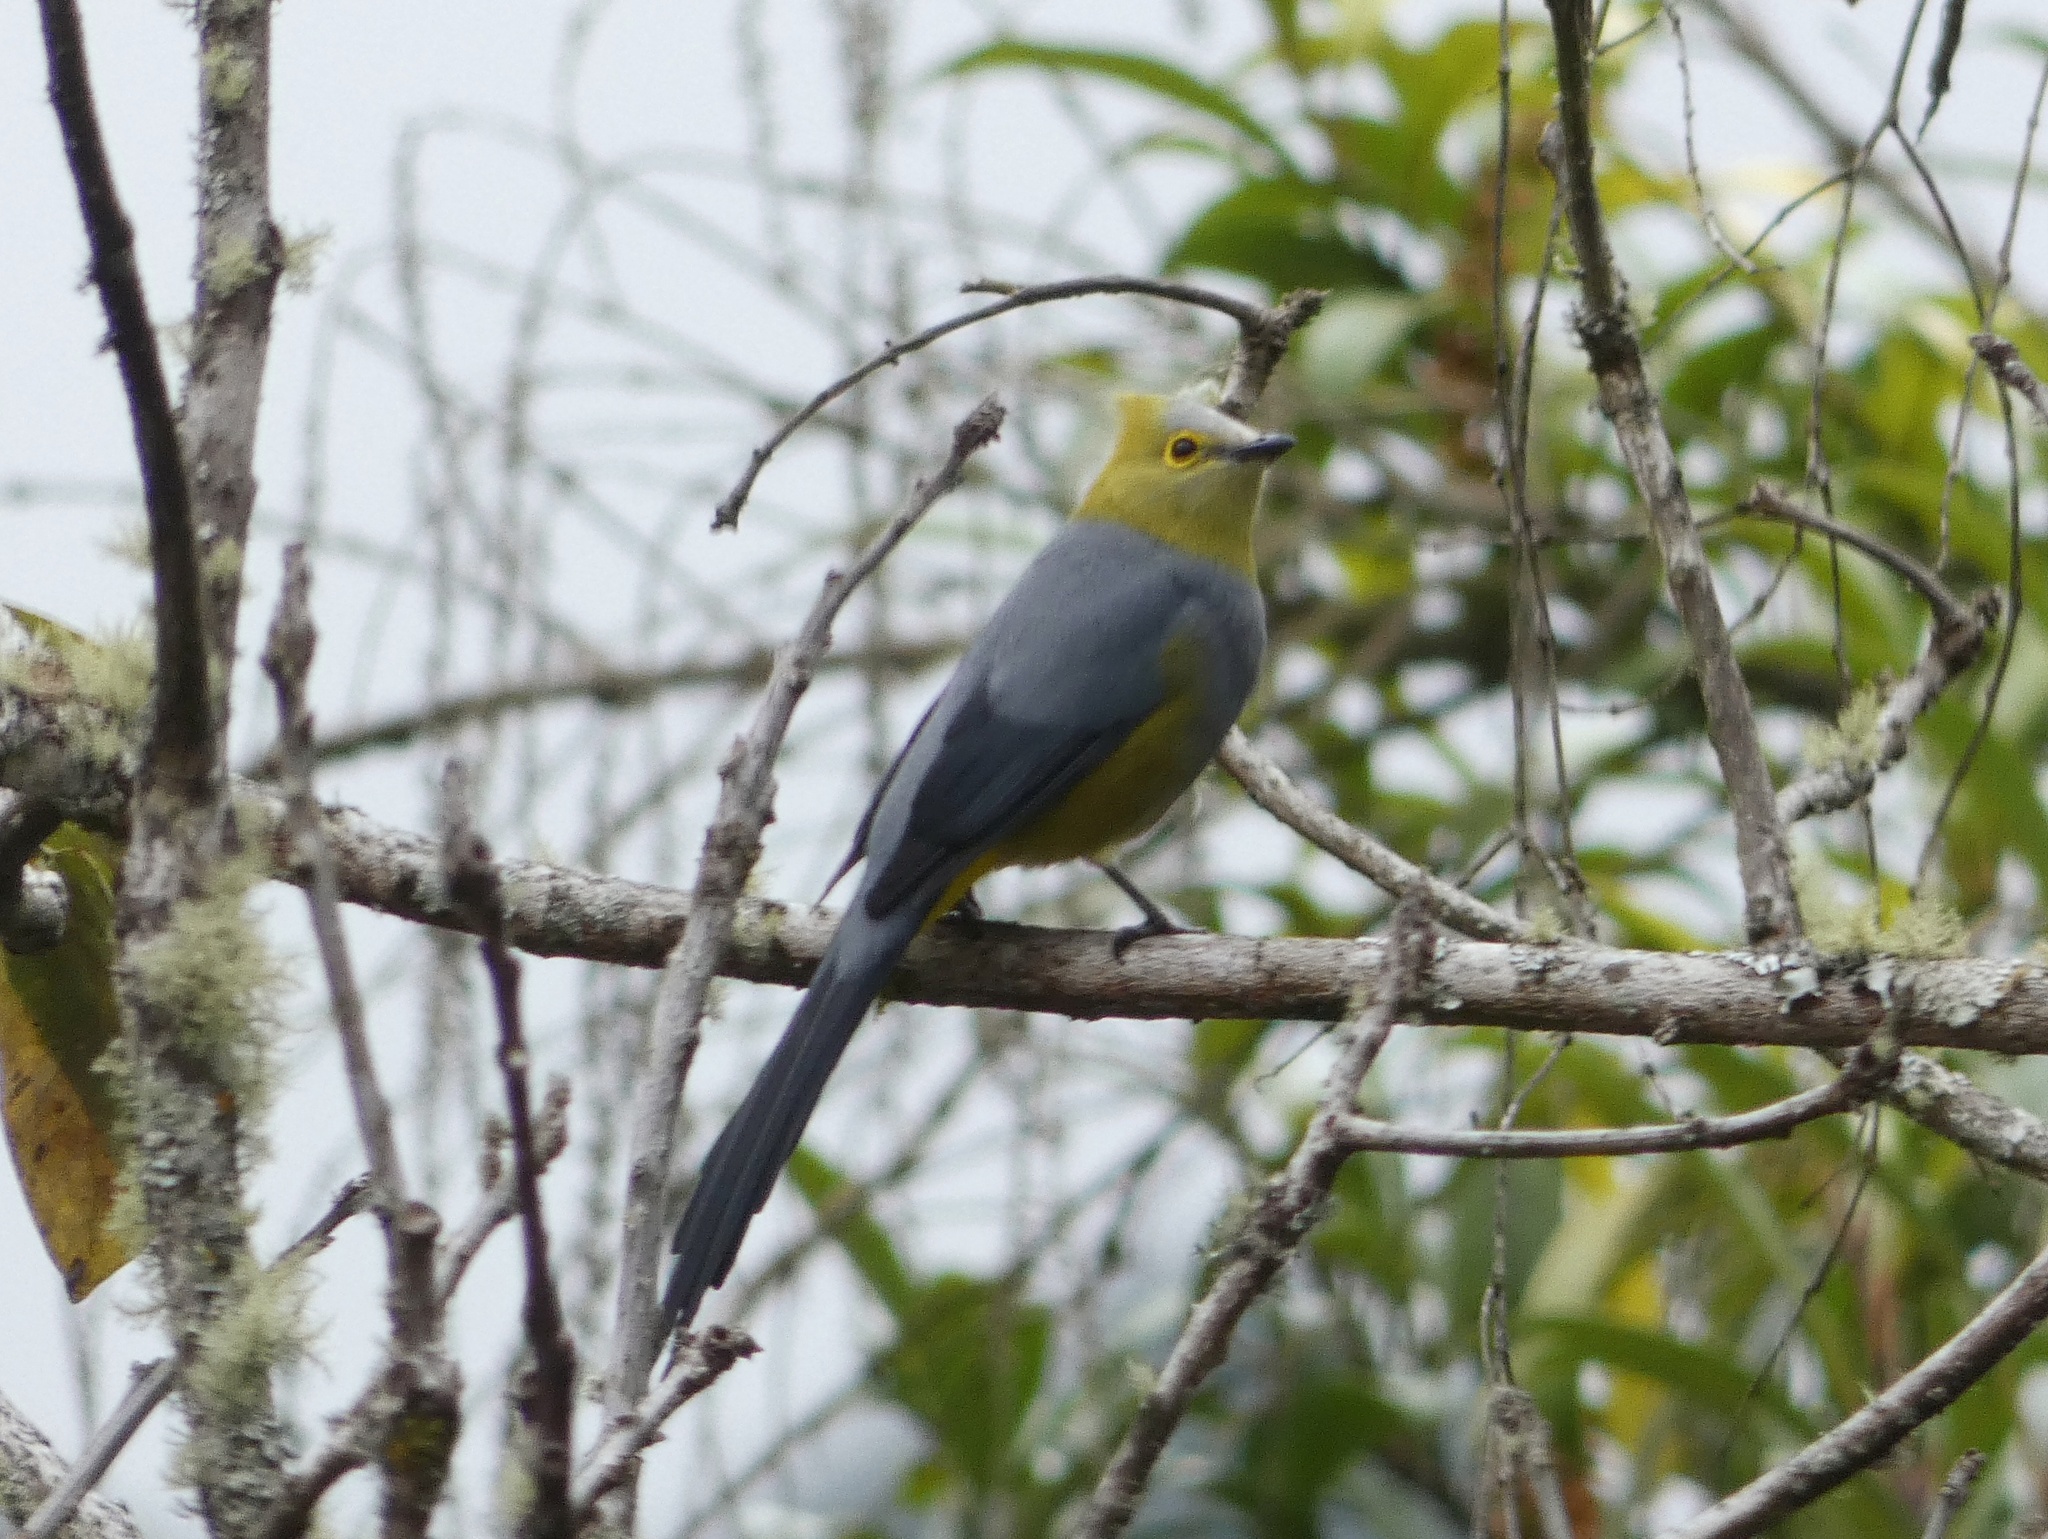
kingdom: Animalia
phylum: Chordata
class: Aves
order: Passeriformes
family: Ptilogonatidae
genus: Ptilogonys
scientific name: Ptilogonys caudatus
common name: Long-tailed silky-flycatcher
